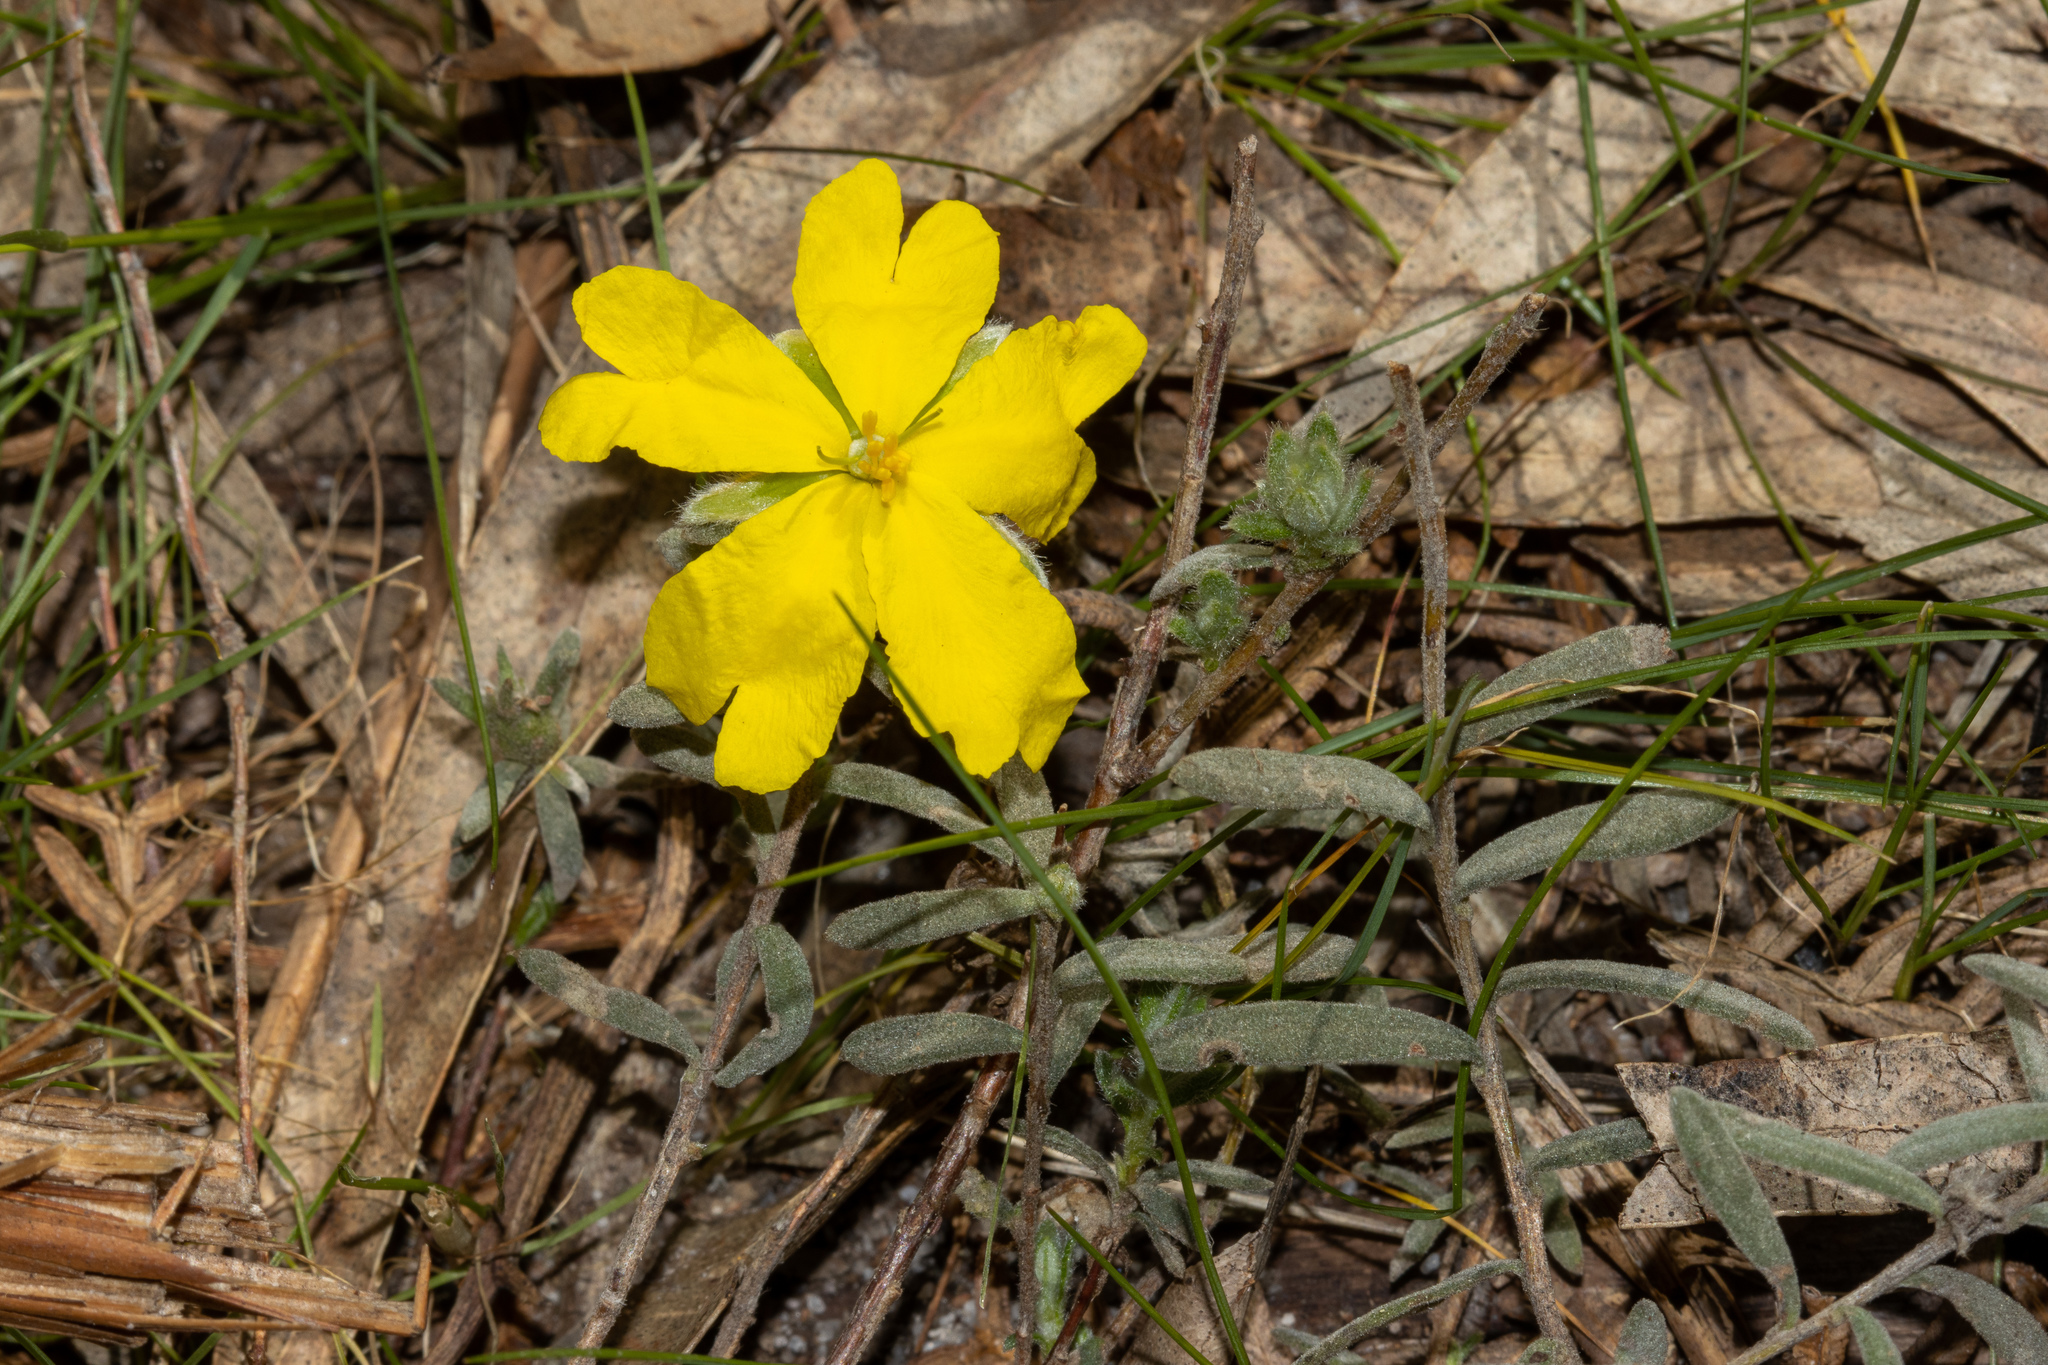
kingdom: Plantae
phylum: Tracheophyta
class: Magnoliopsida
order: Dilleniales
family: Dilleniaceae
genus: Hibbertia
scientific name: Hibbertia crinita
